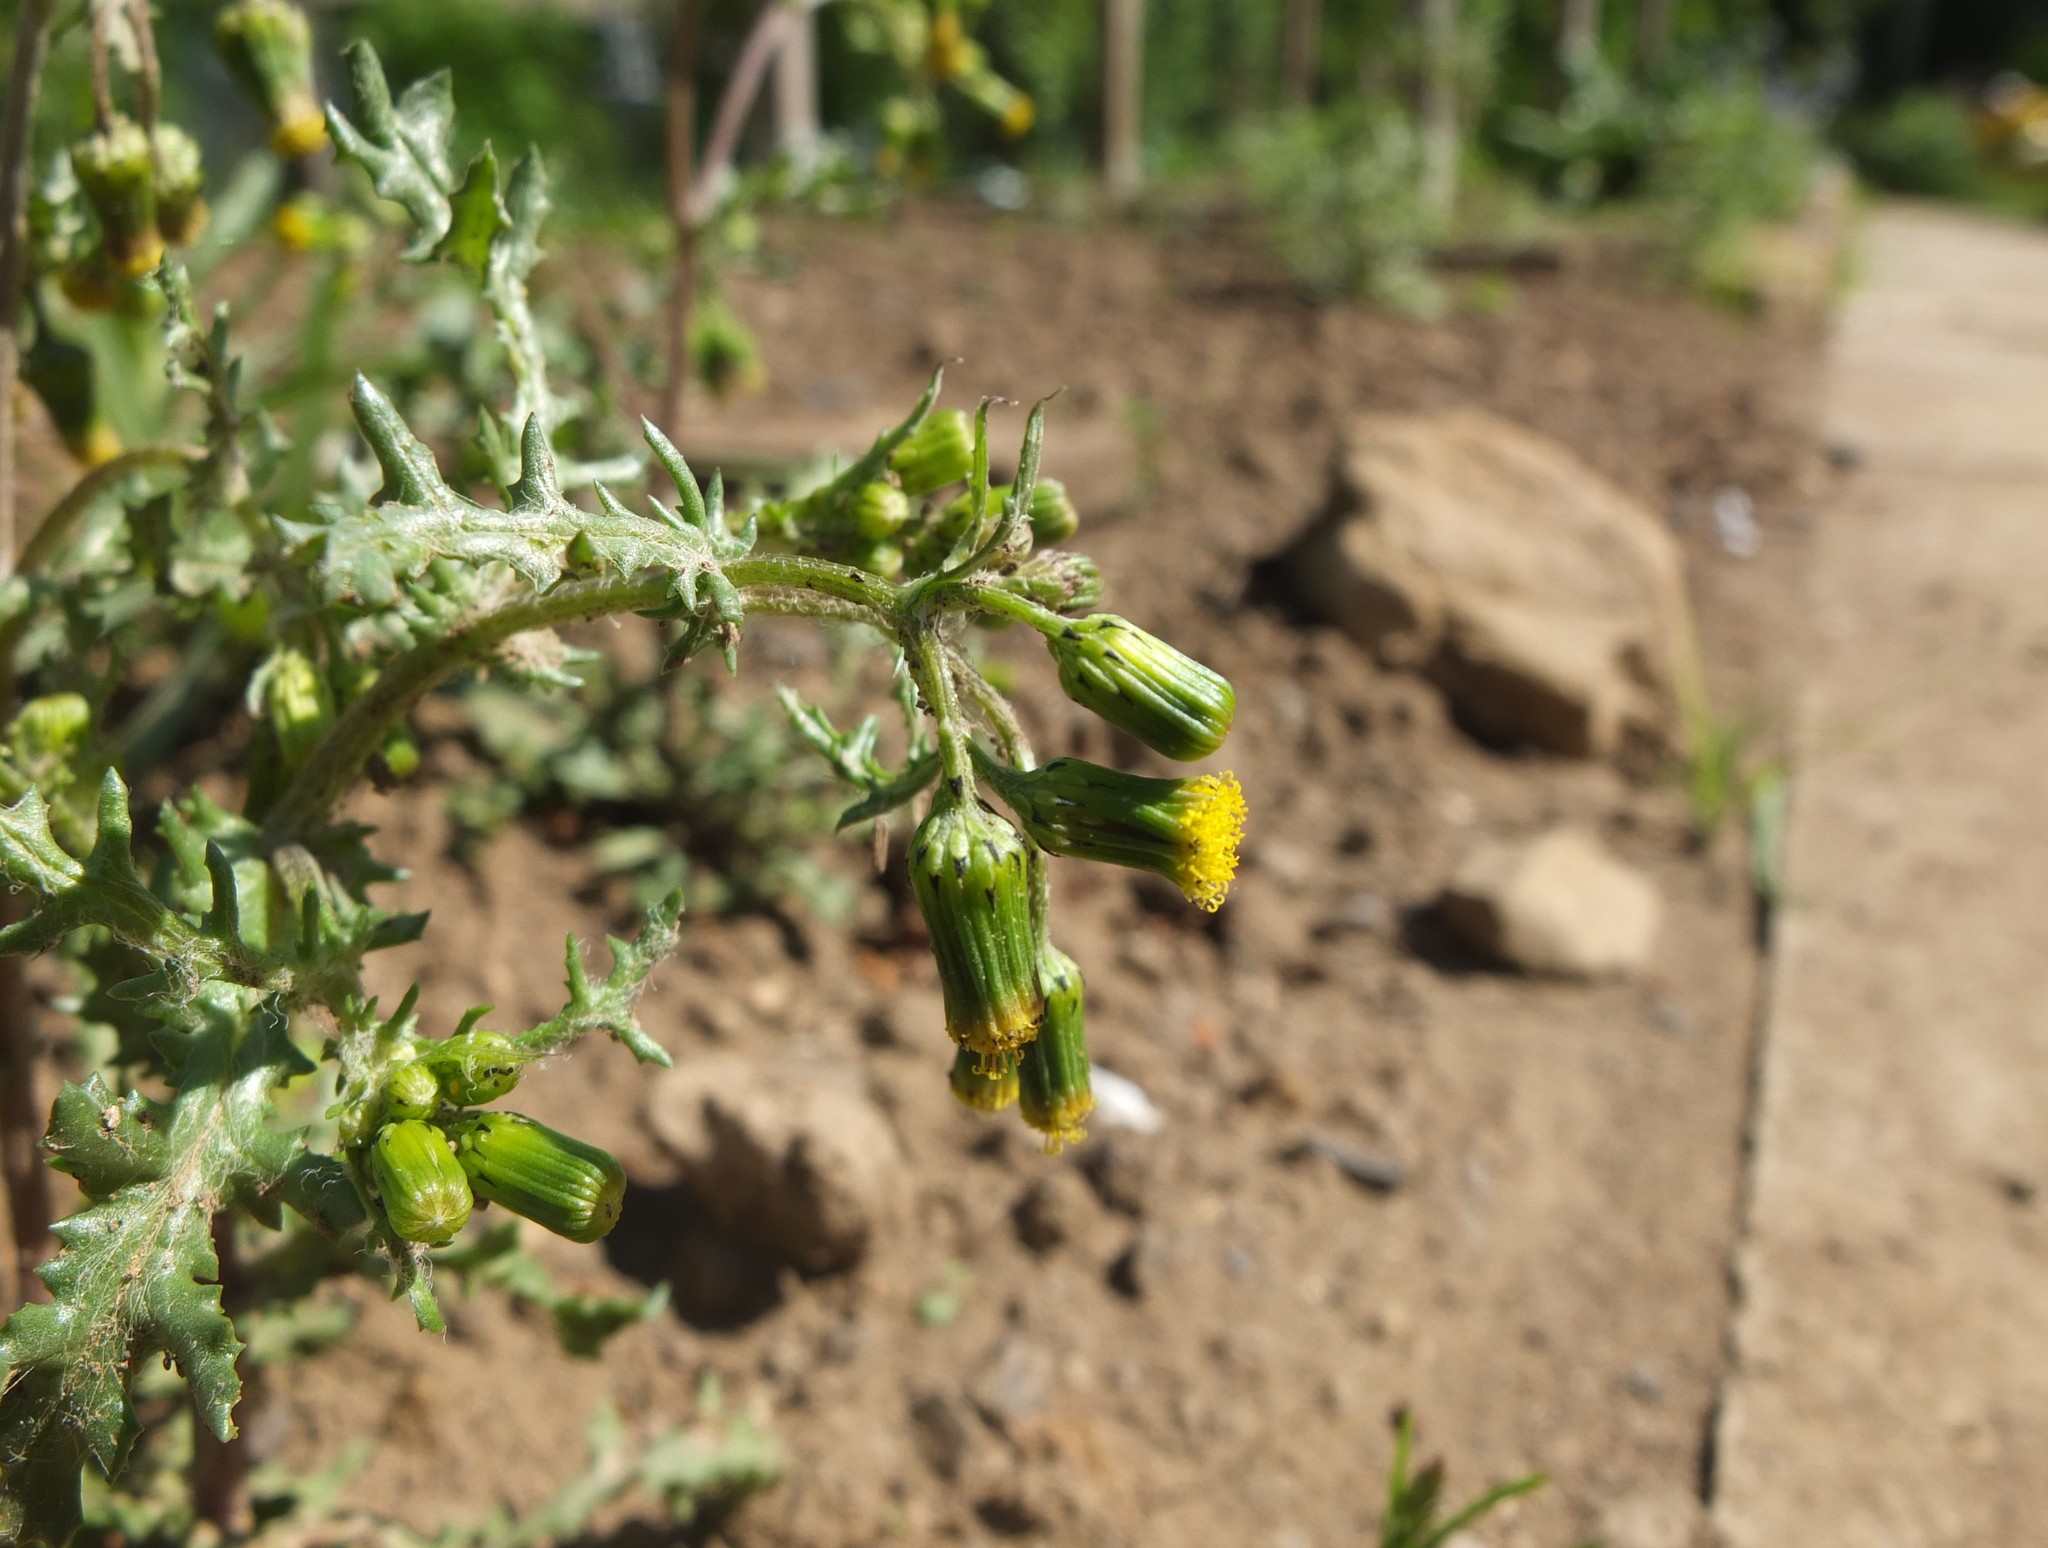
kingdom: Plantae
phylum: Tracheophyta
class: Magnoliopsida
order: Asterales
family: Asteraceae
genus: Senecio
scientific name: Senecio vulgaris
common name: Old-man-in-the-spring
